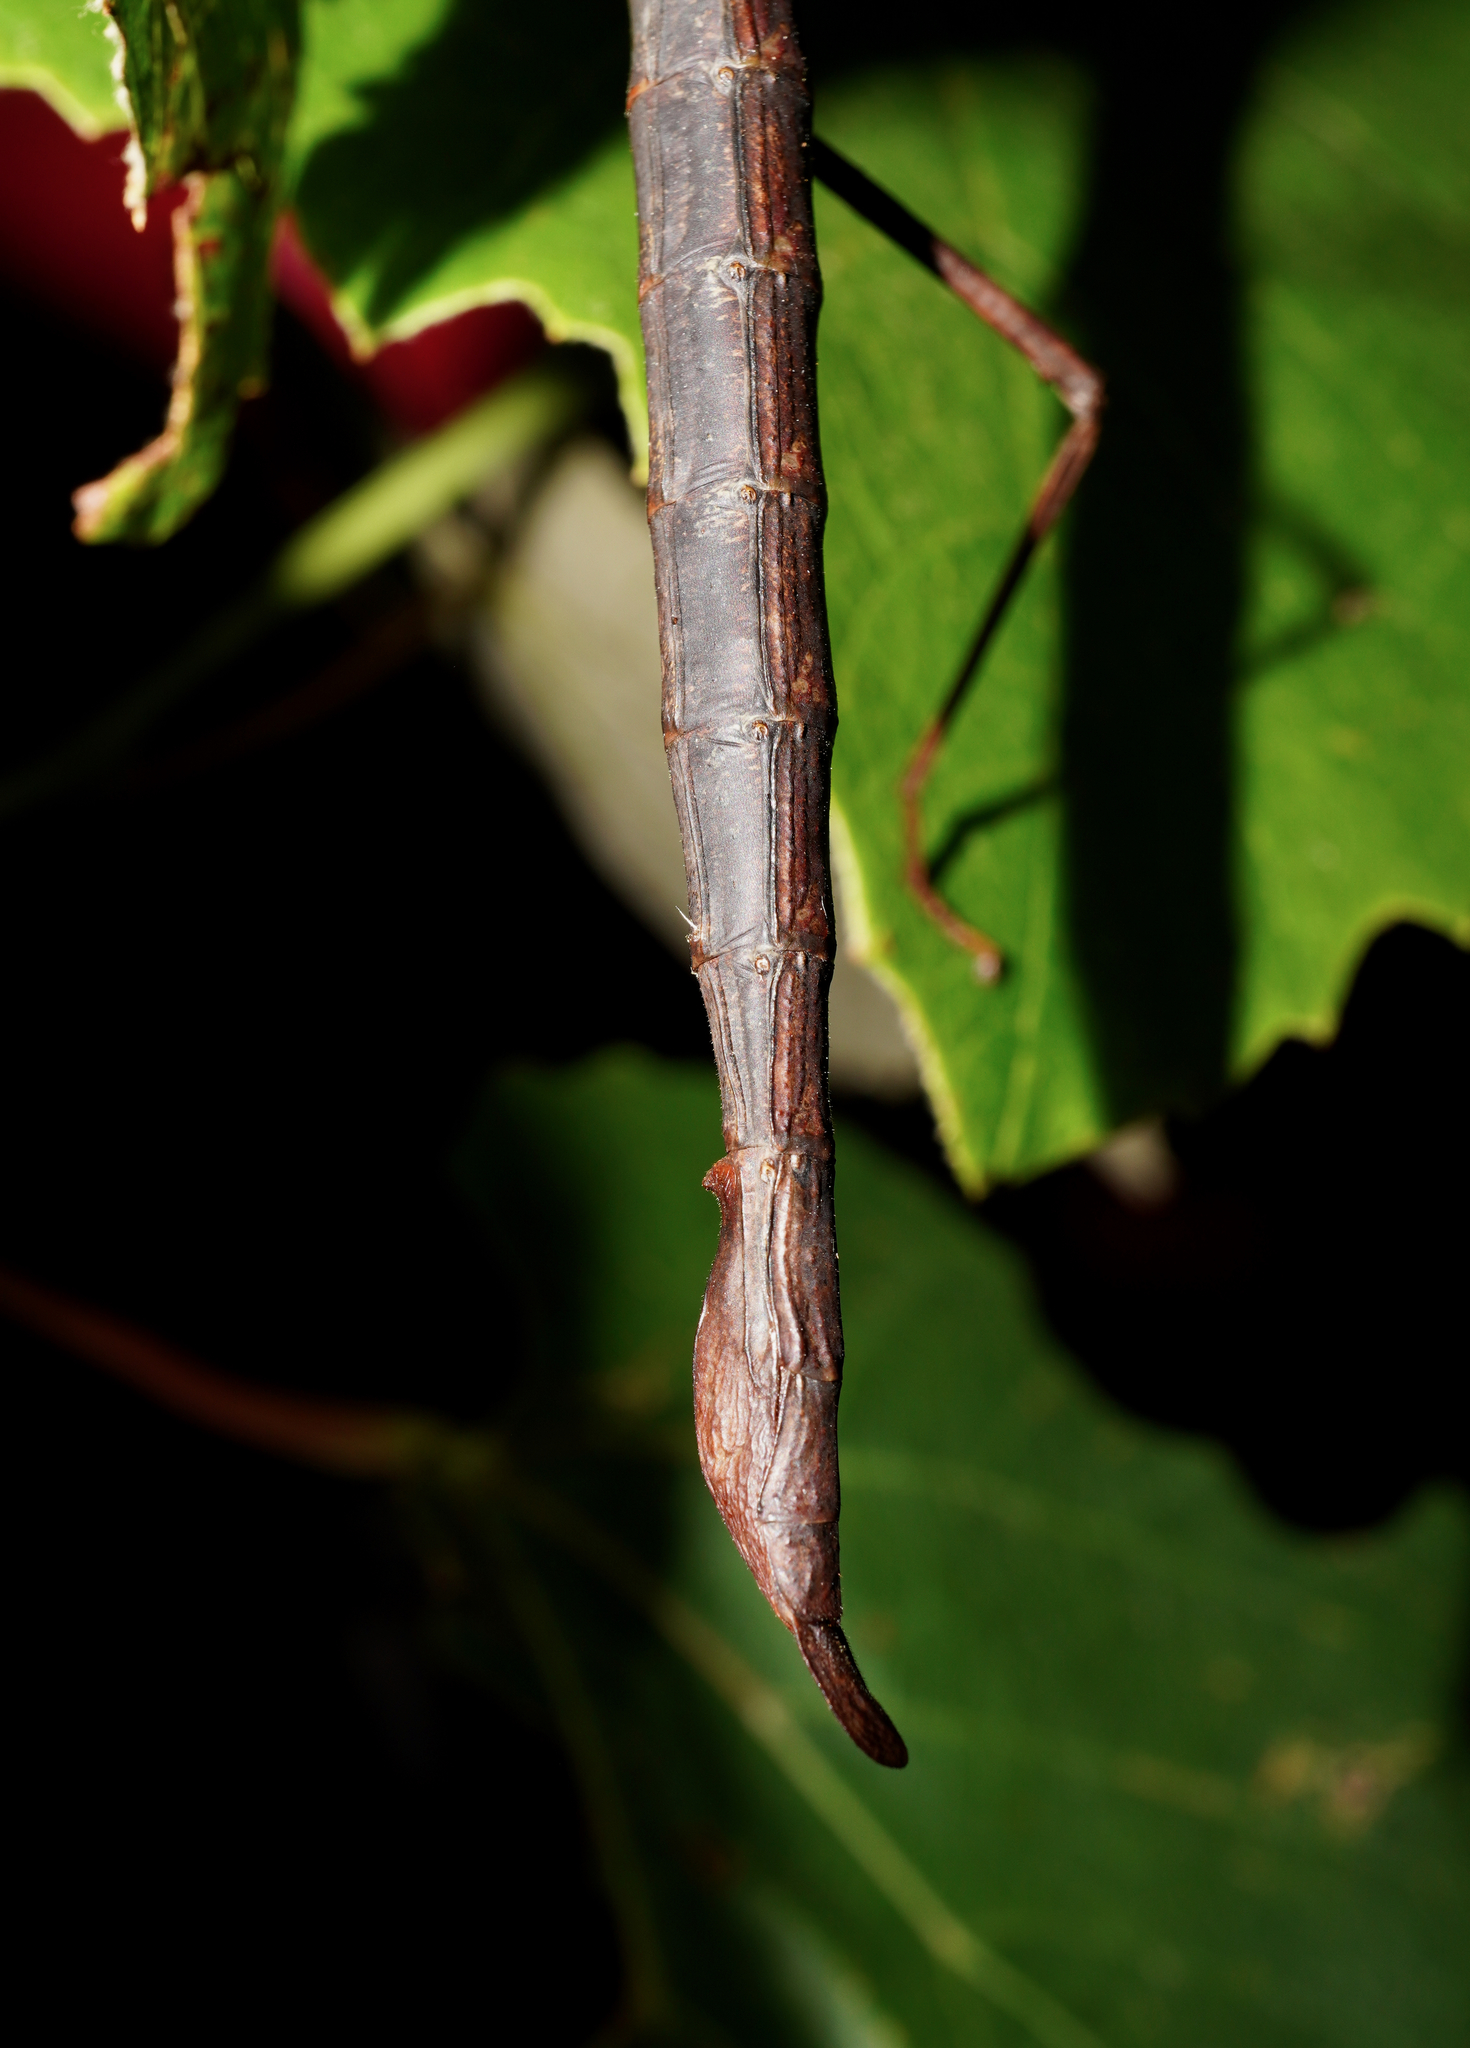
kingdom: Animalia
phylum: Arthropoda
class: Insecta
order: Phasmida
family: Phasmatidae
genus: Acanthoxyla
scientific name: Acanthoxyla inermis
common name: Unarmed stick insect
